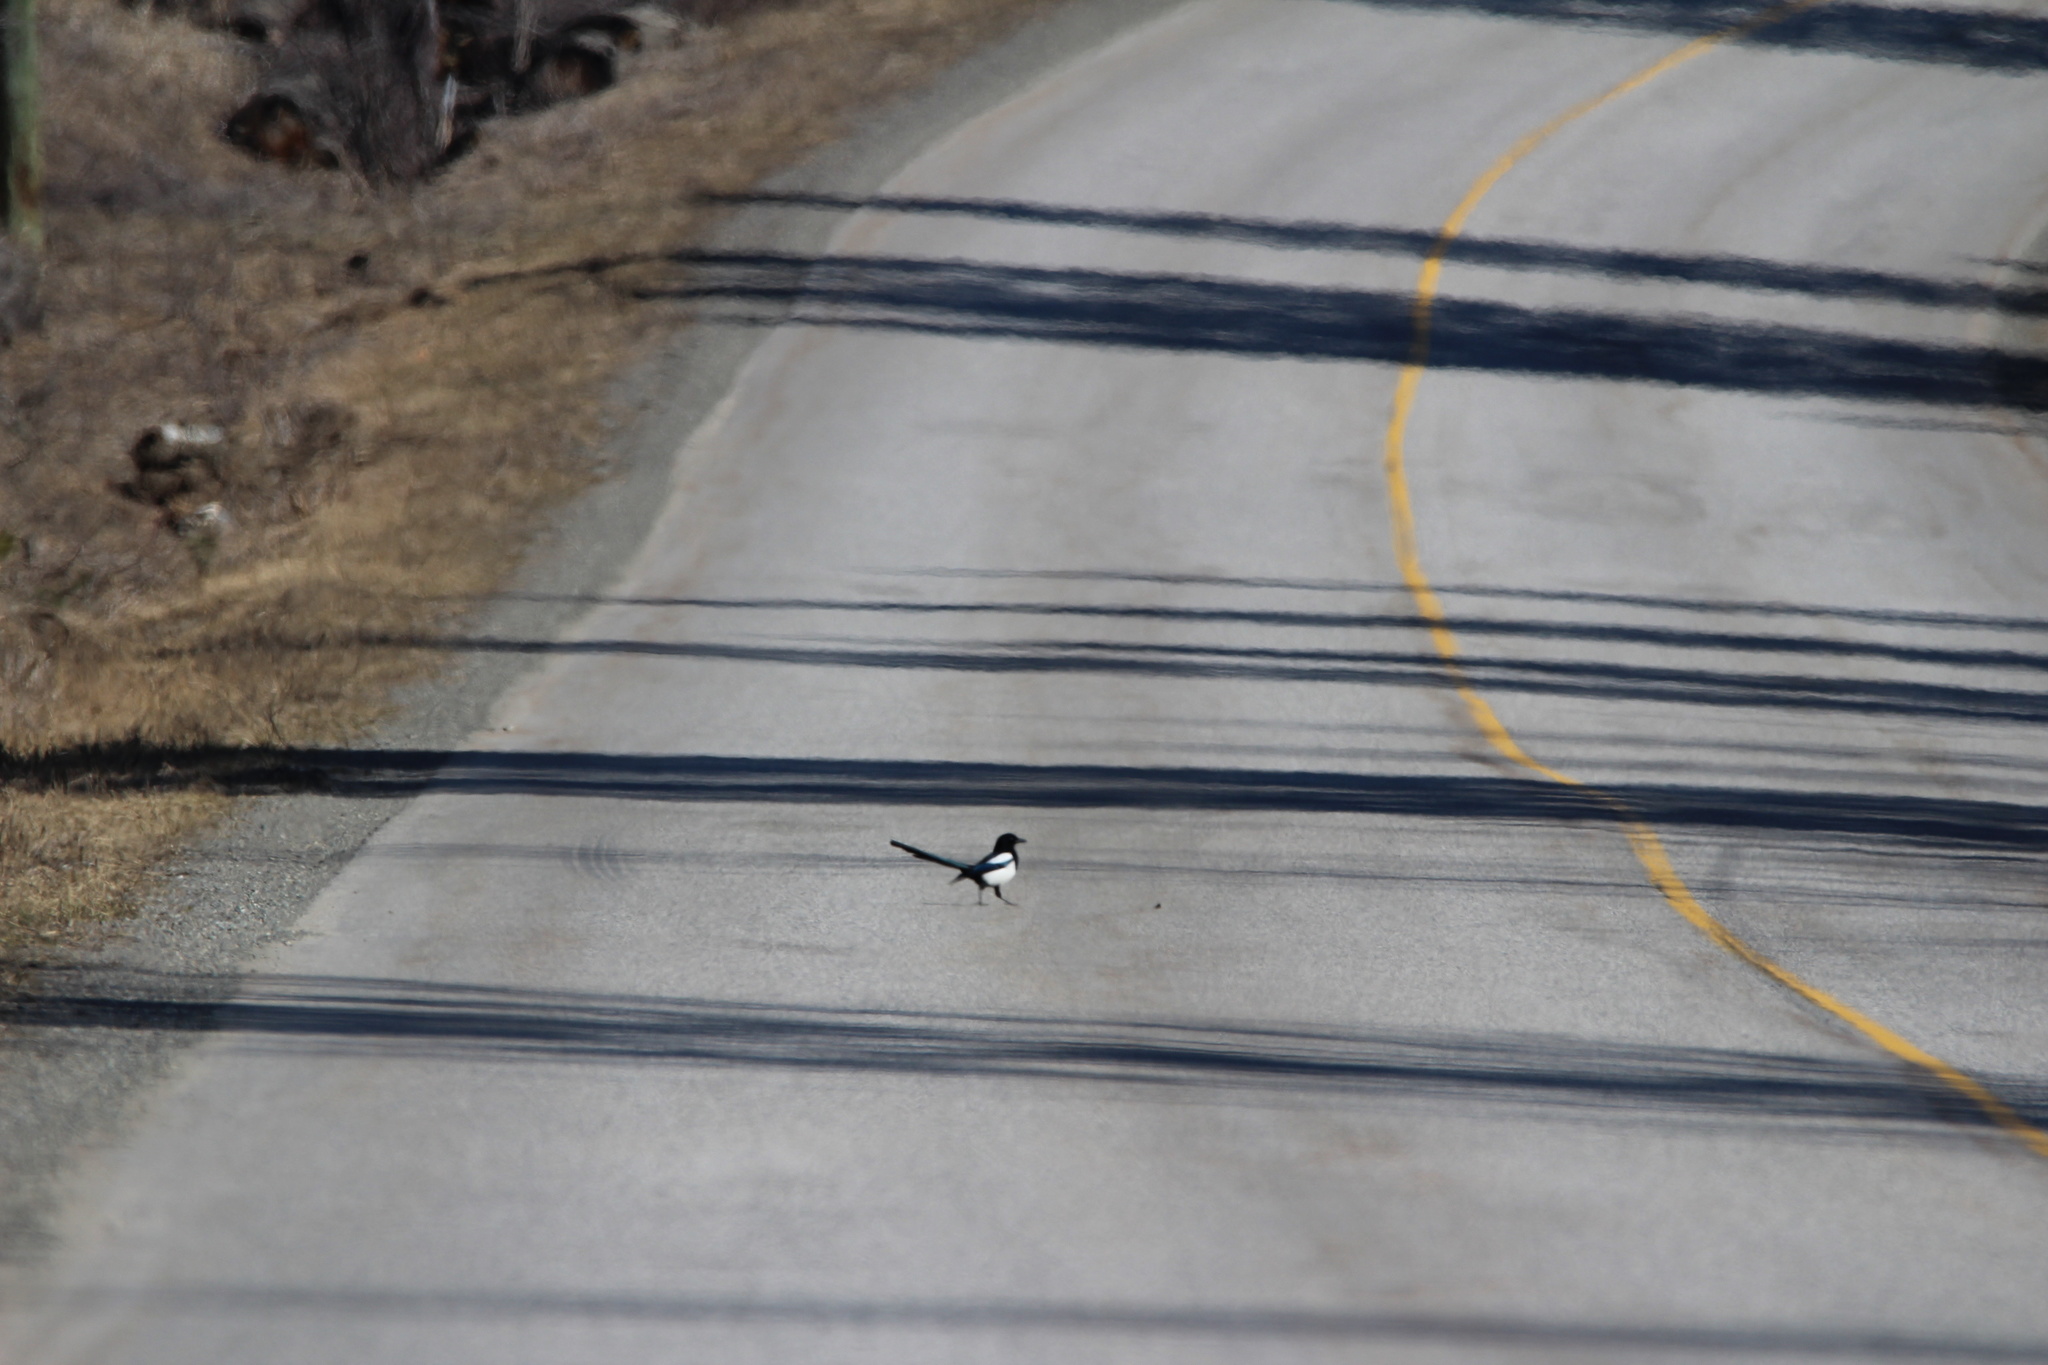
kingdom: Animalia
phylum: Chordata
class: Aves
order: Passeriformes
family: Corvidae
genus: Pica
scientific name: Pica hudsonia
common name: Black-billed magpie
